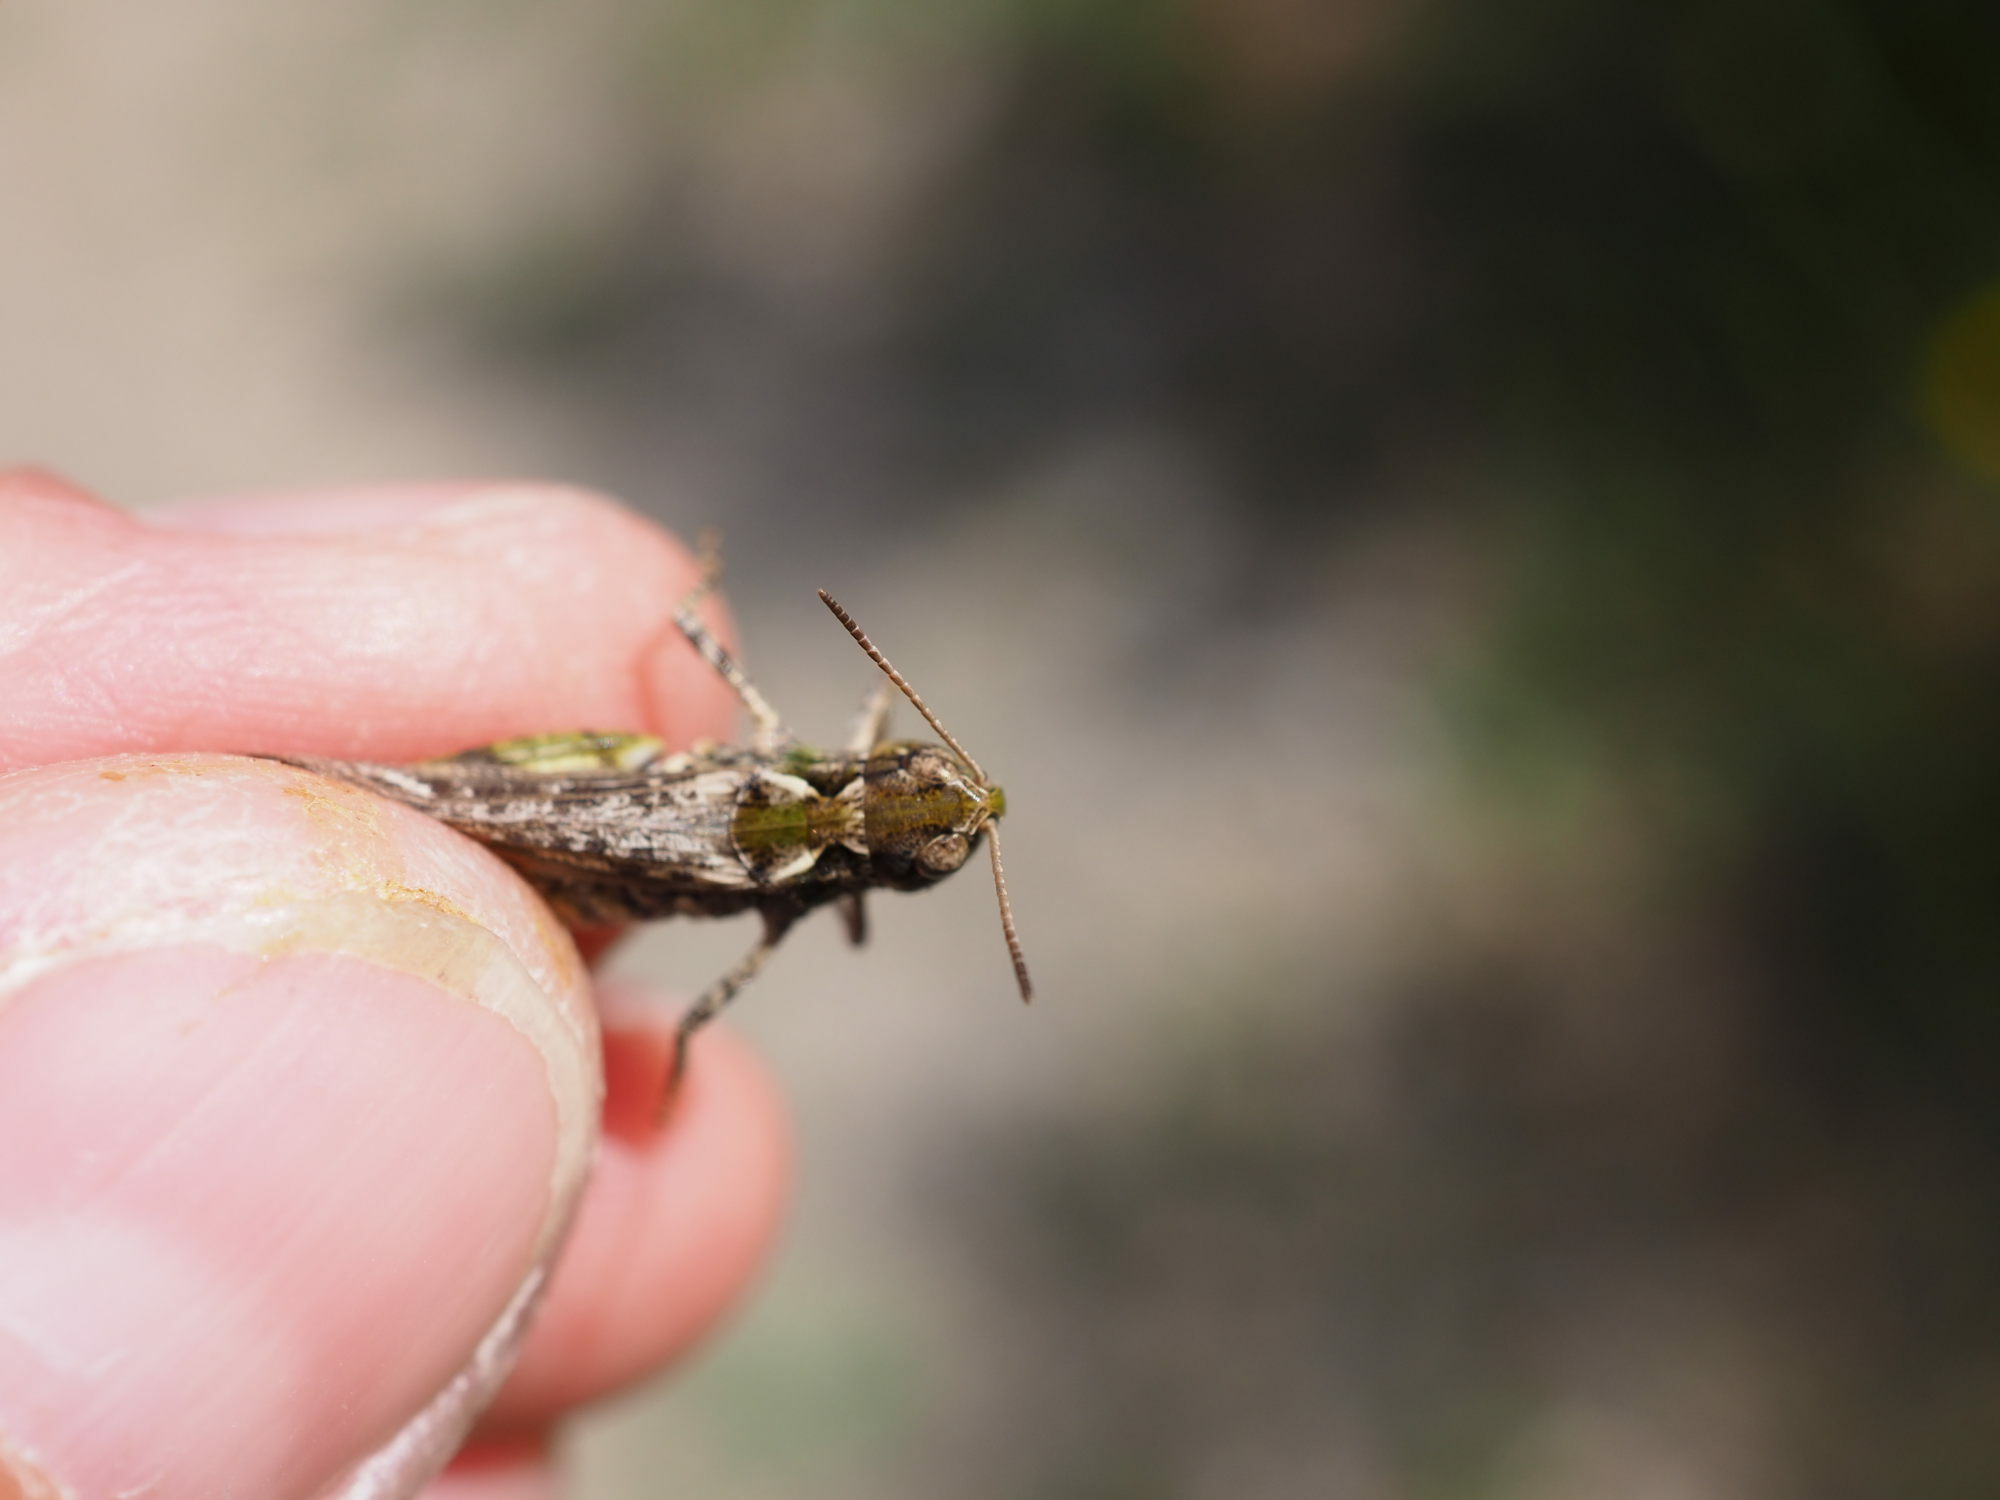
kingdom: Animalia
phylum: Arthropoda
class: Insecta
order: Orthoptera
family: Acrididae
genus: Myrmeleotettix
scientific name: Myrmeleotettix maculatus
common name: Mottled grasshopper
